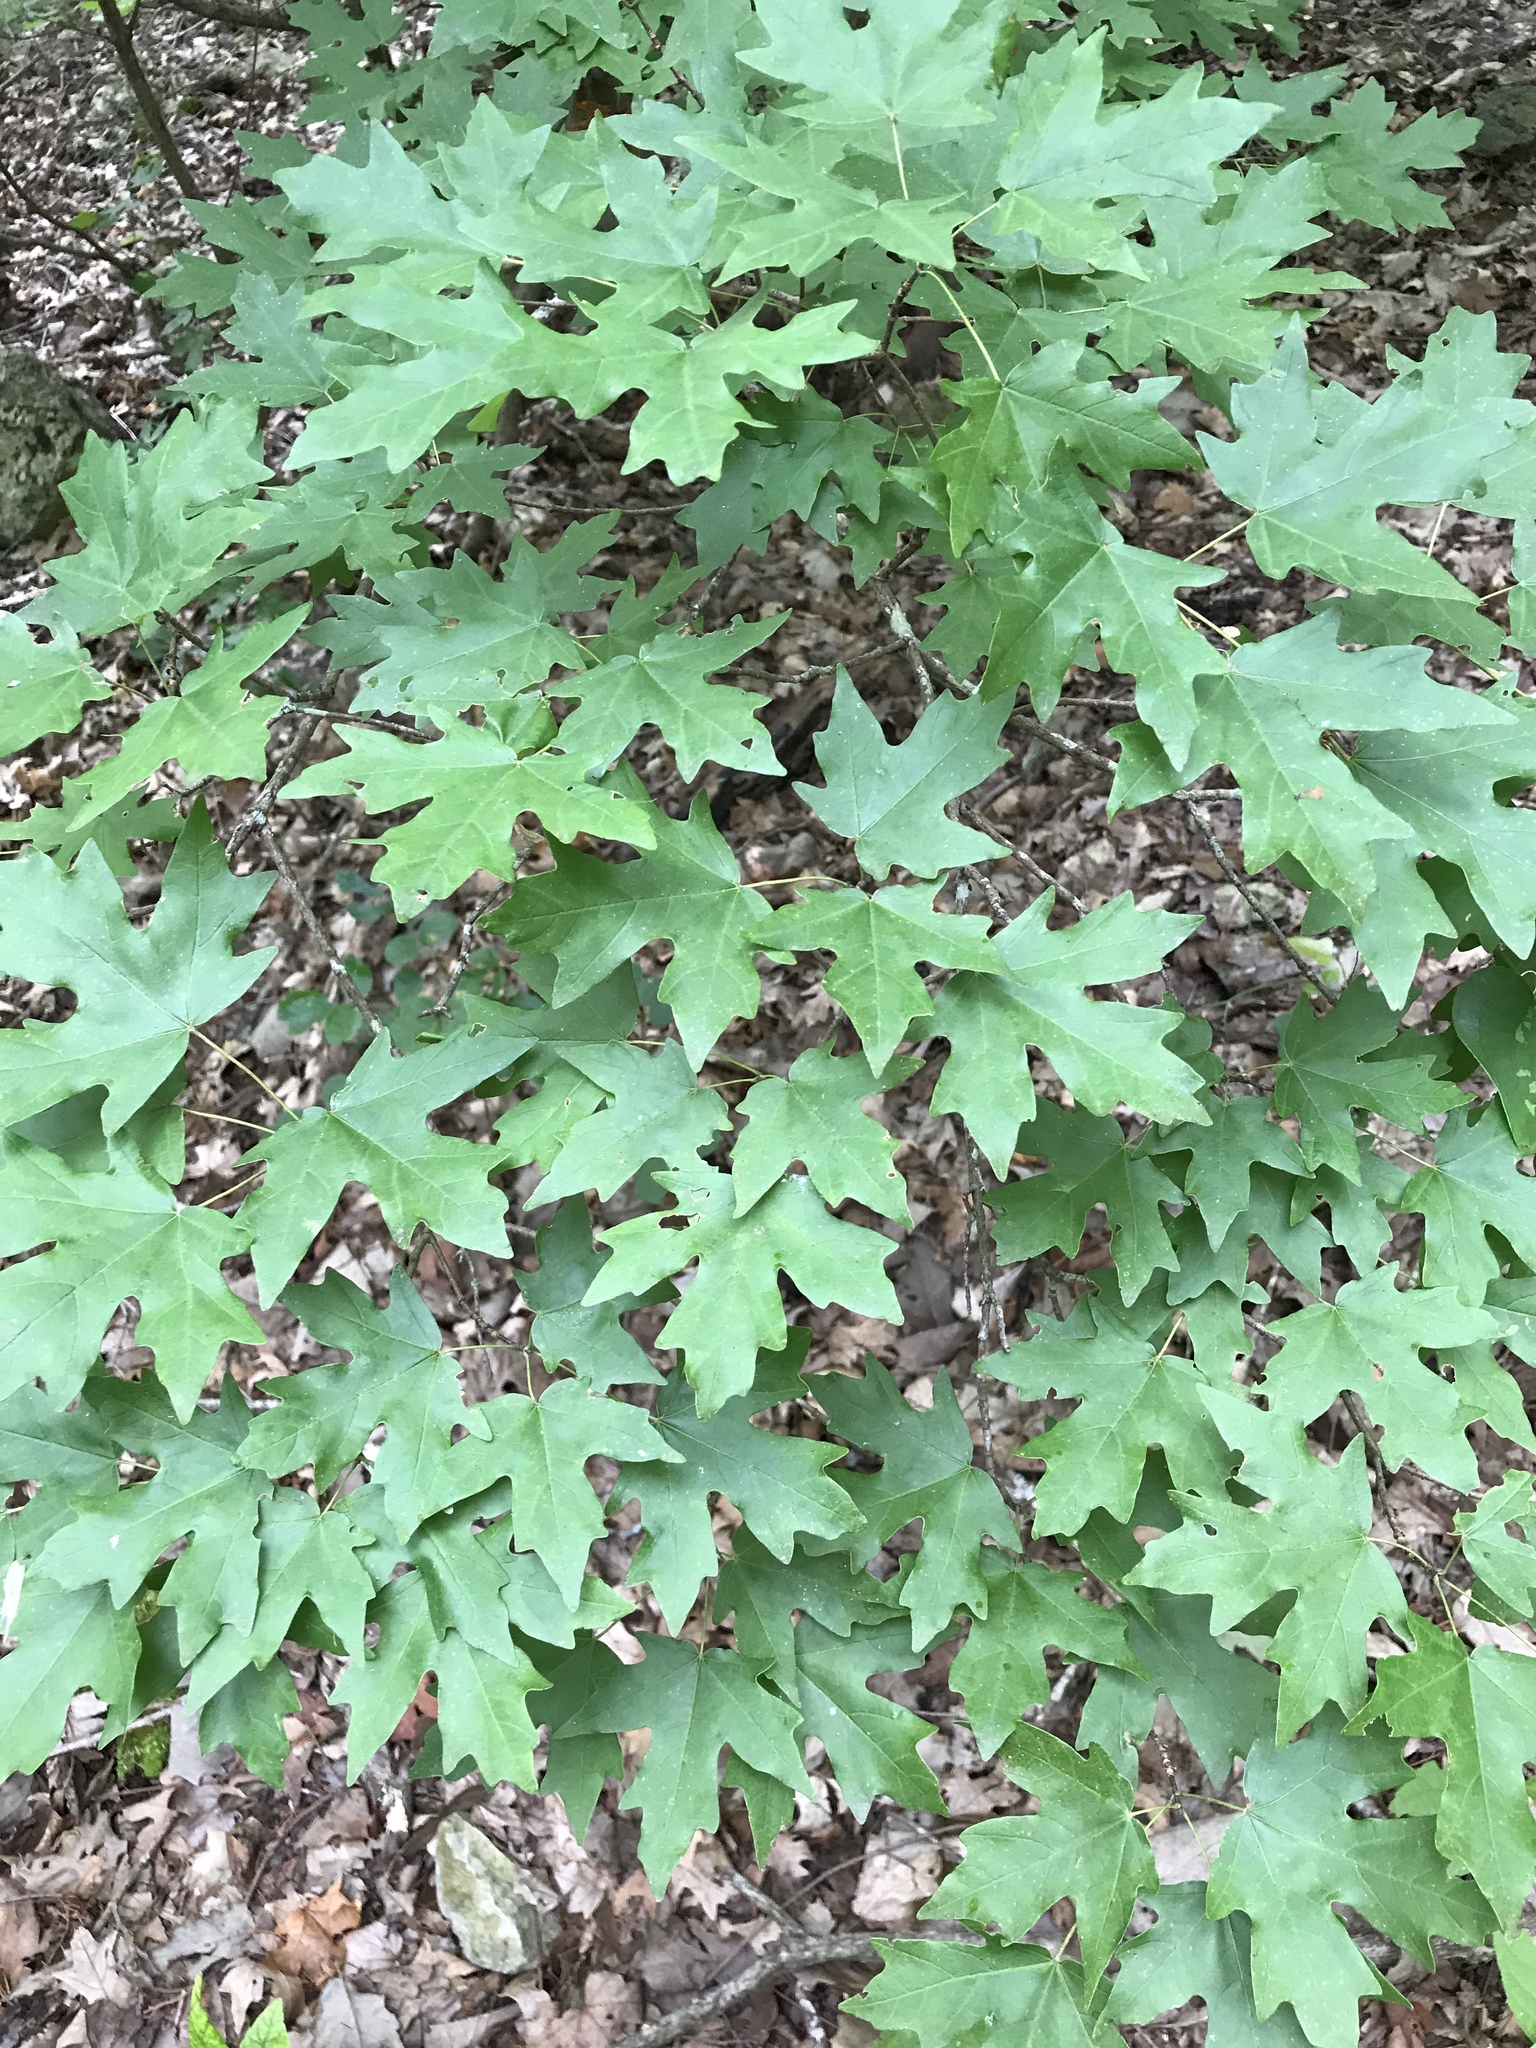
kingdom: Plantae
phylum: Tracheophyta
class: Magnoliopsida
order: Sapindales
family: Sapindaceae
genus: Acer
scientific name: Acer grandidentatum
